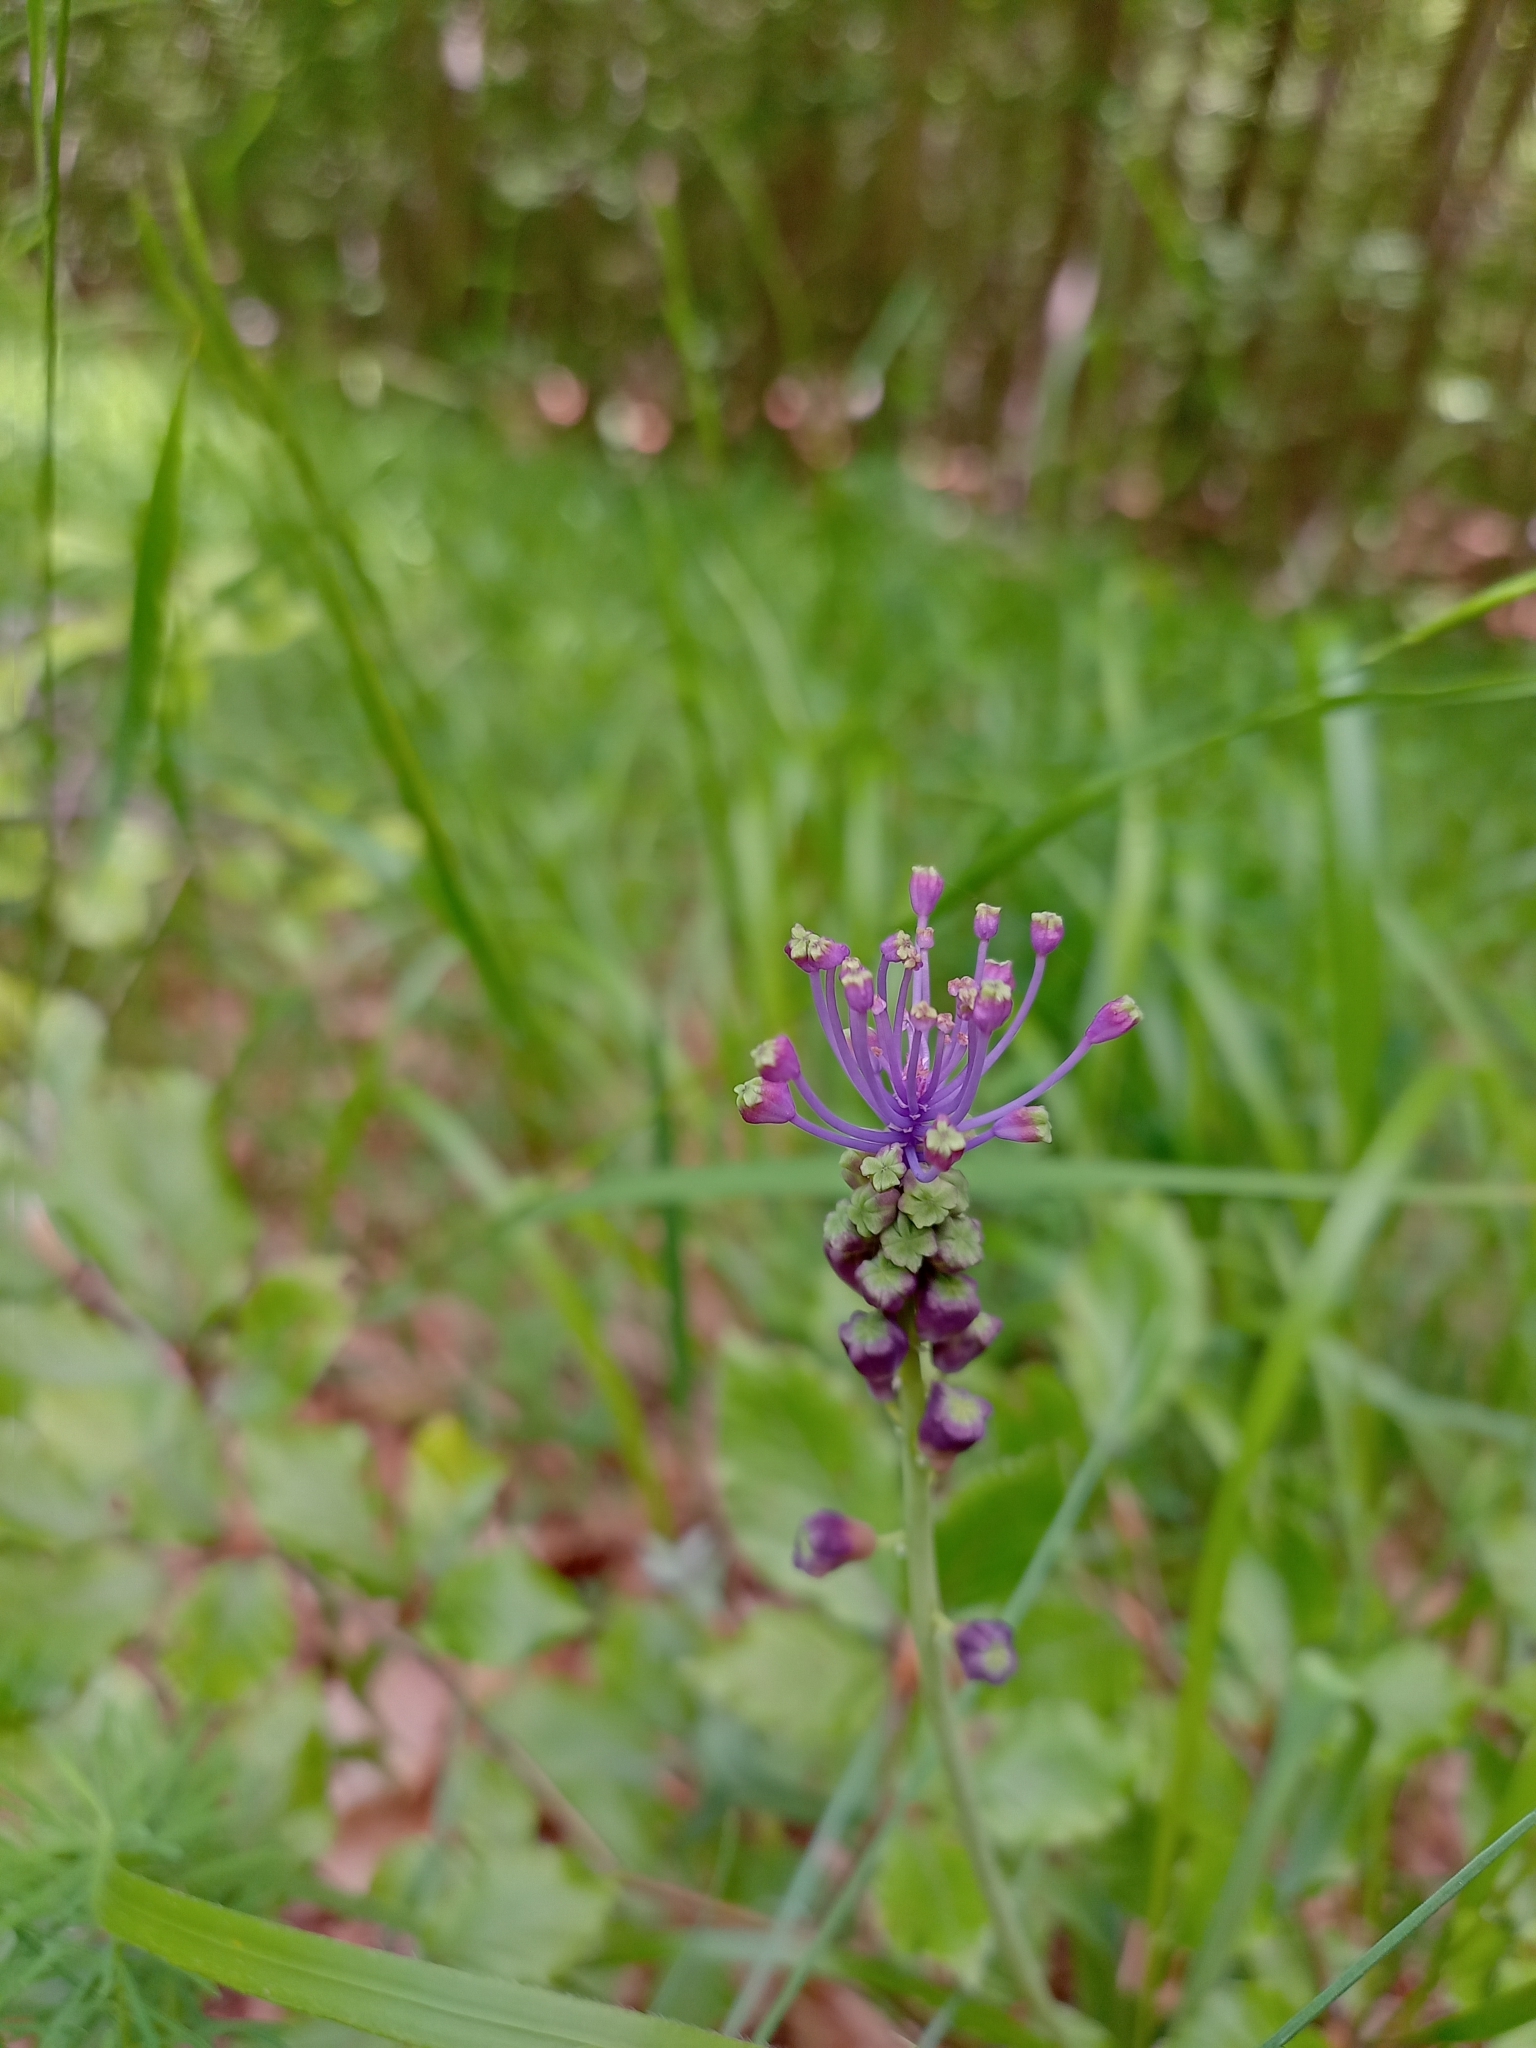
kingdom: Plantae
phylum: Tracheophyta
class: Liliopsida
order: Asparagales
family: Asparagaceae
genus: Muscari
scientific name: Muscari comosum
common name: Tassel hyacinth
